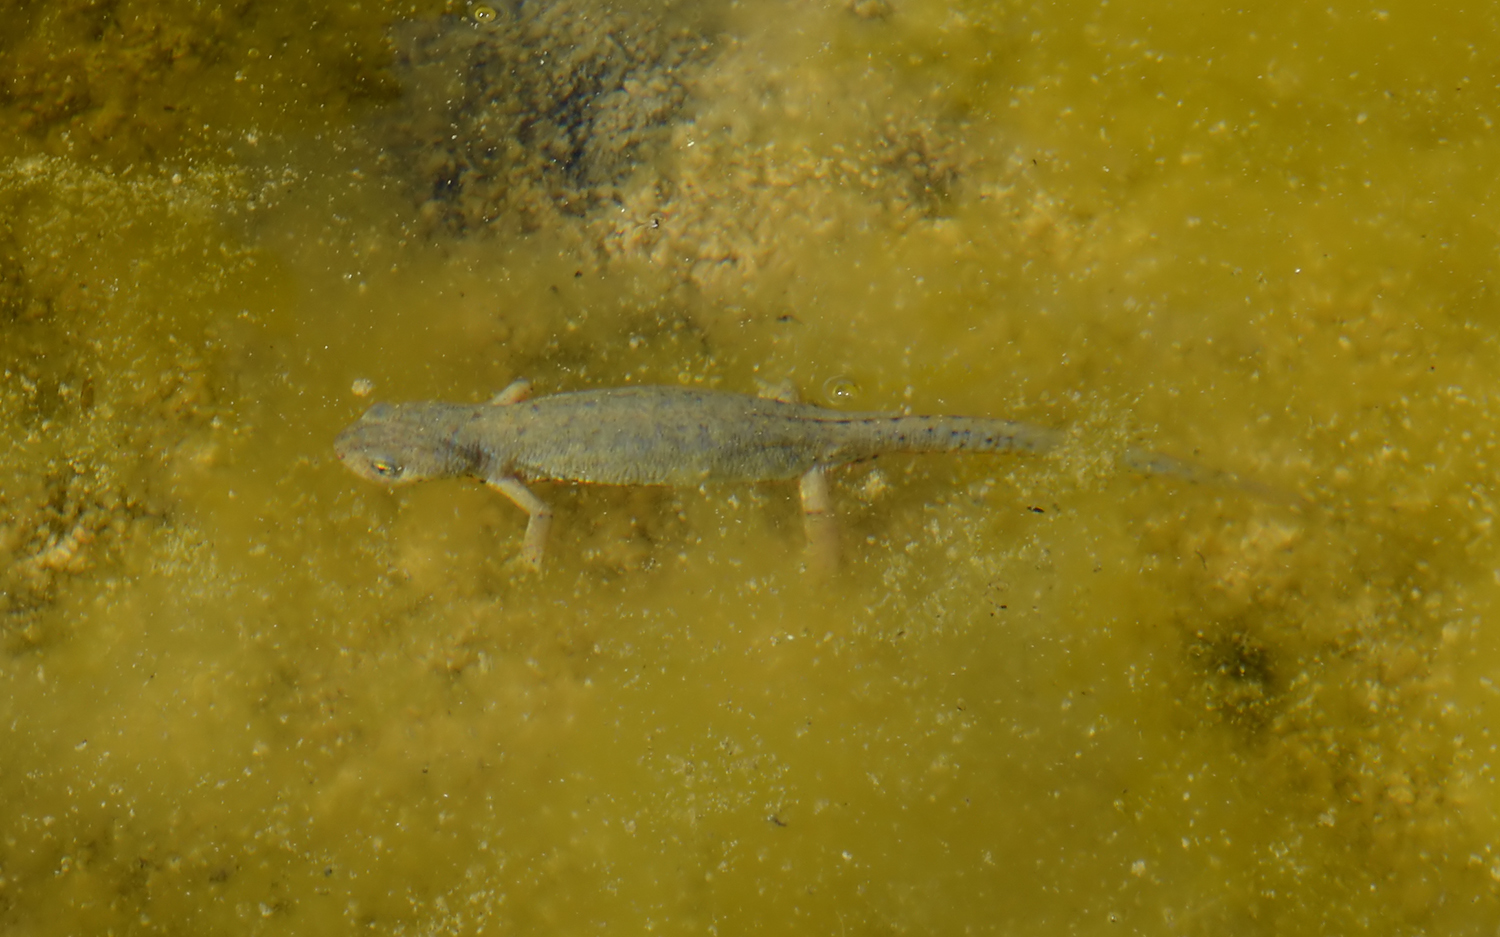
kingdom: Animalia
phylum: Chordata
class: Amphibia
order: Caudata
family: Salamandridae
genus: Ichthyosaura
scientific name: Ichthyosaura alpestris
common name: Alpine newt
